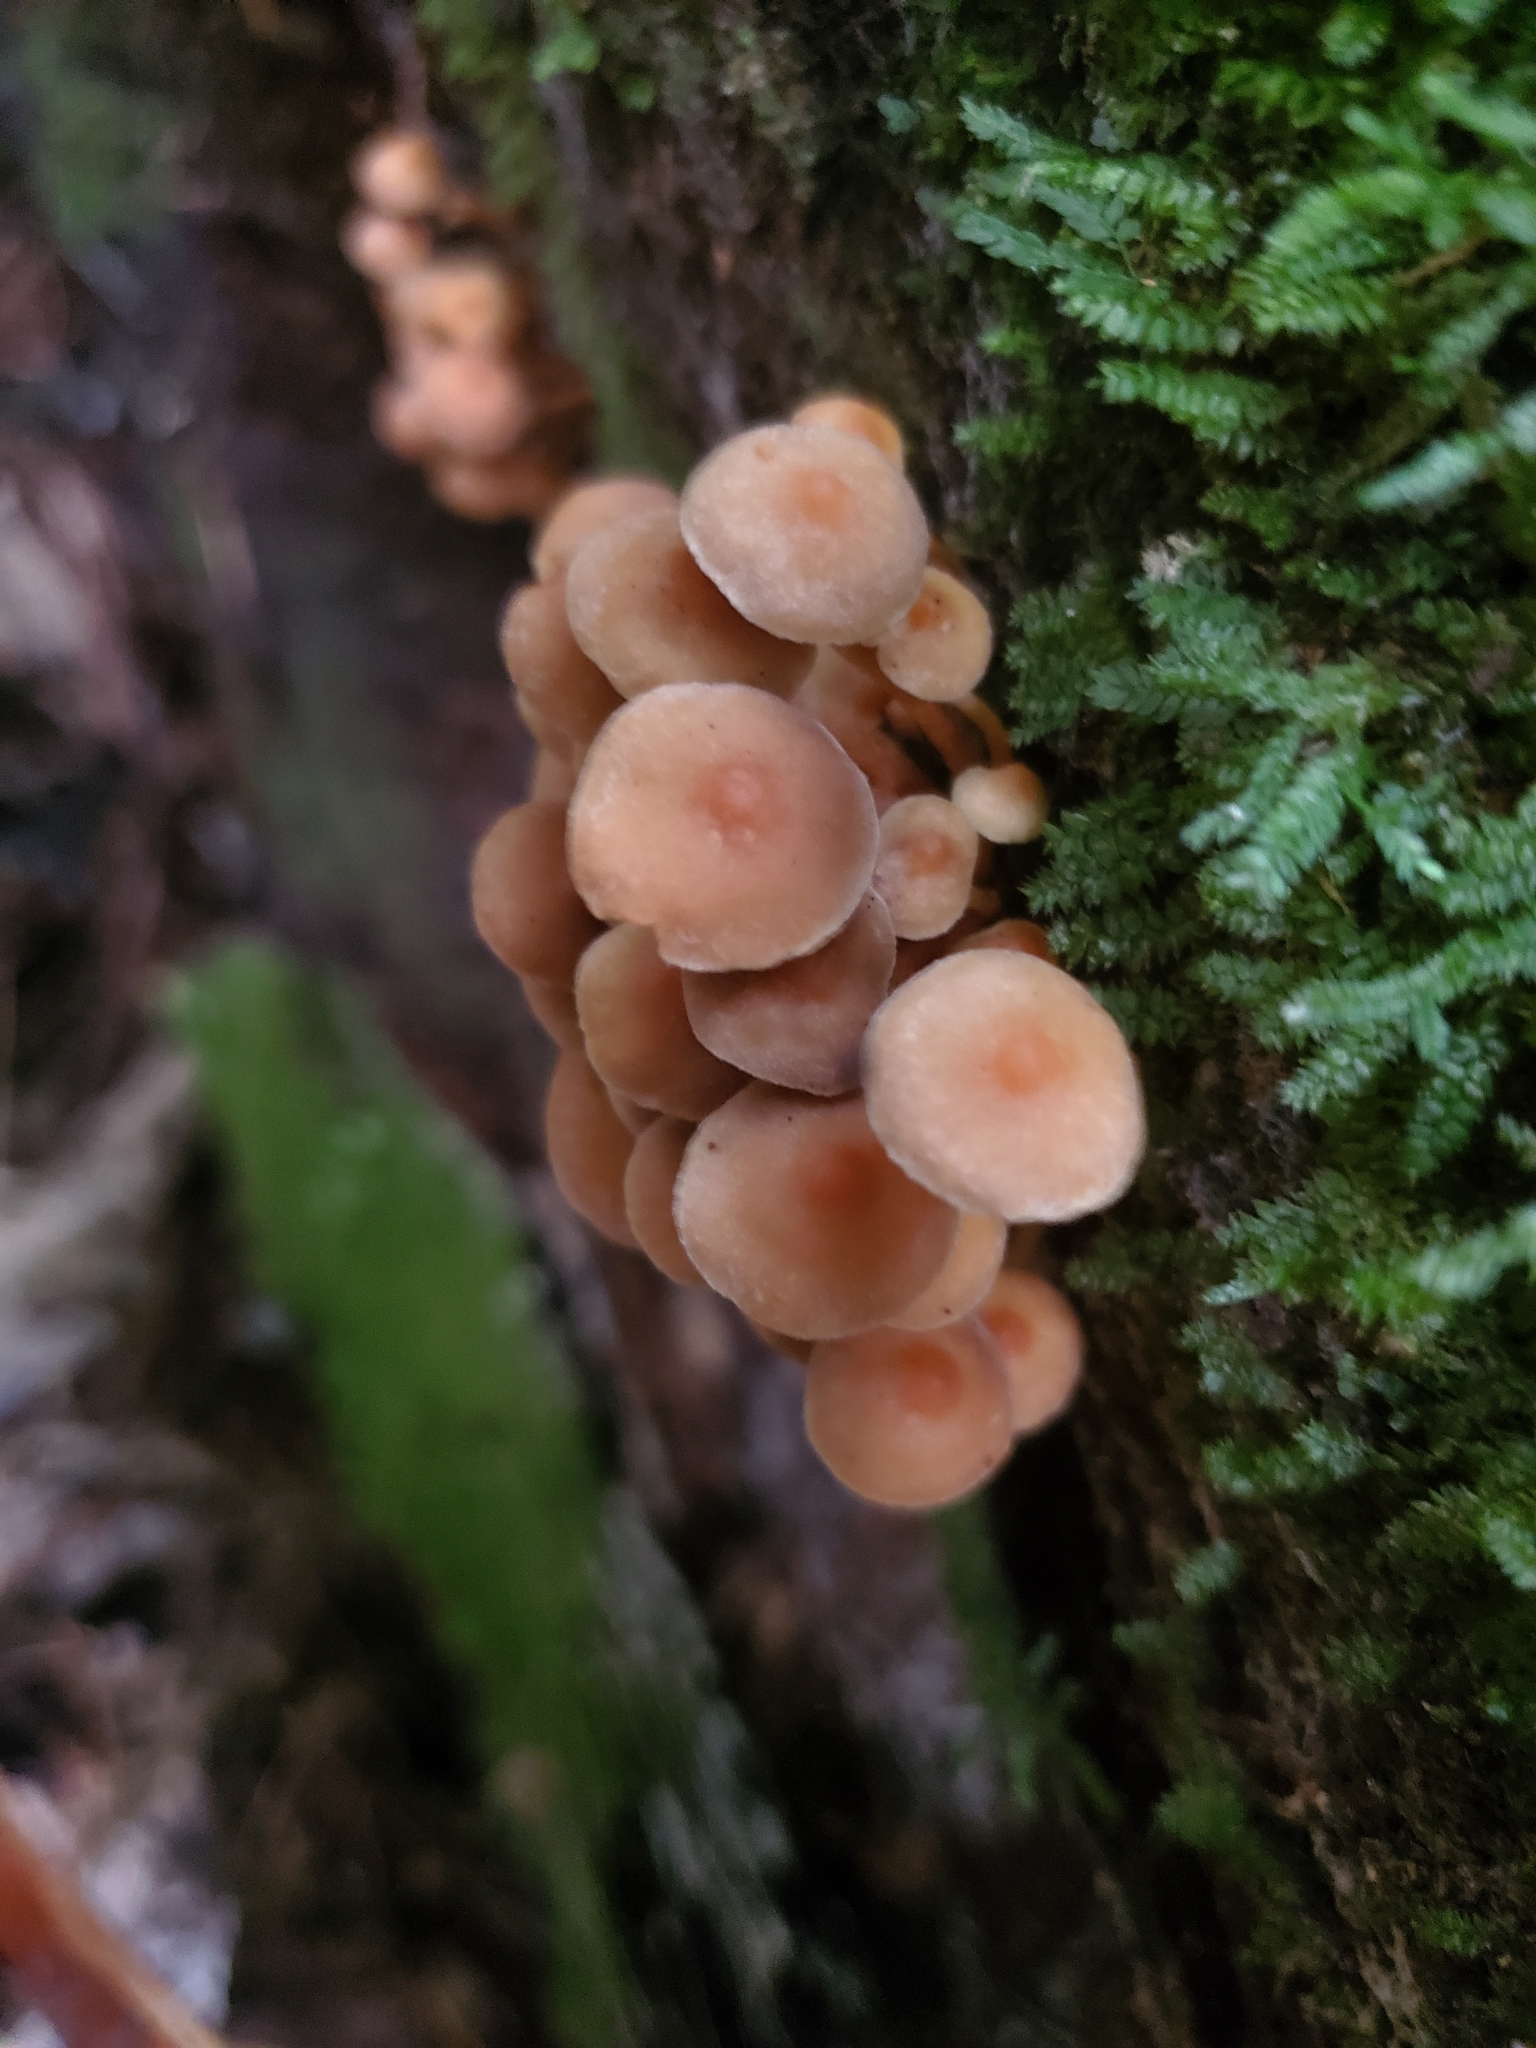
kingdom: Fungi
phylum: Basidiomycota
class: Agaricomycetes
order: Agaricales
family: Strophariaceae
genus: Hypholoma
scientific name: Hypholoma acutum
